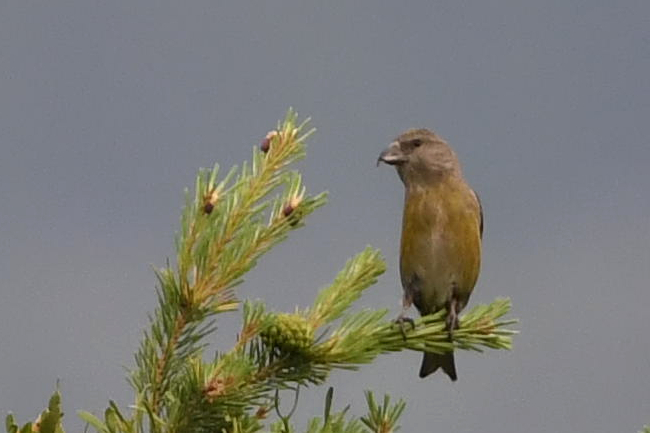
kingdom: Animalia
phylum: Chordata
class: Aves
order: Passeriformes
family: Fringillidae
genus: Loxia
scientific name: Loxia curvirostra
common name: Red crossbill
